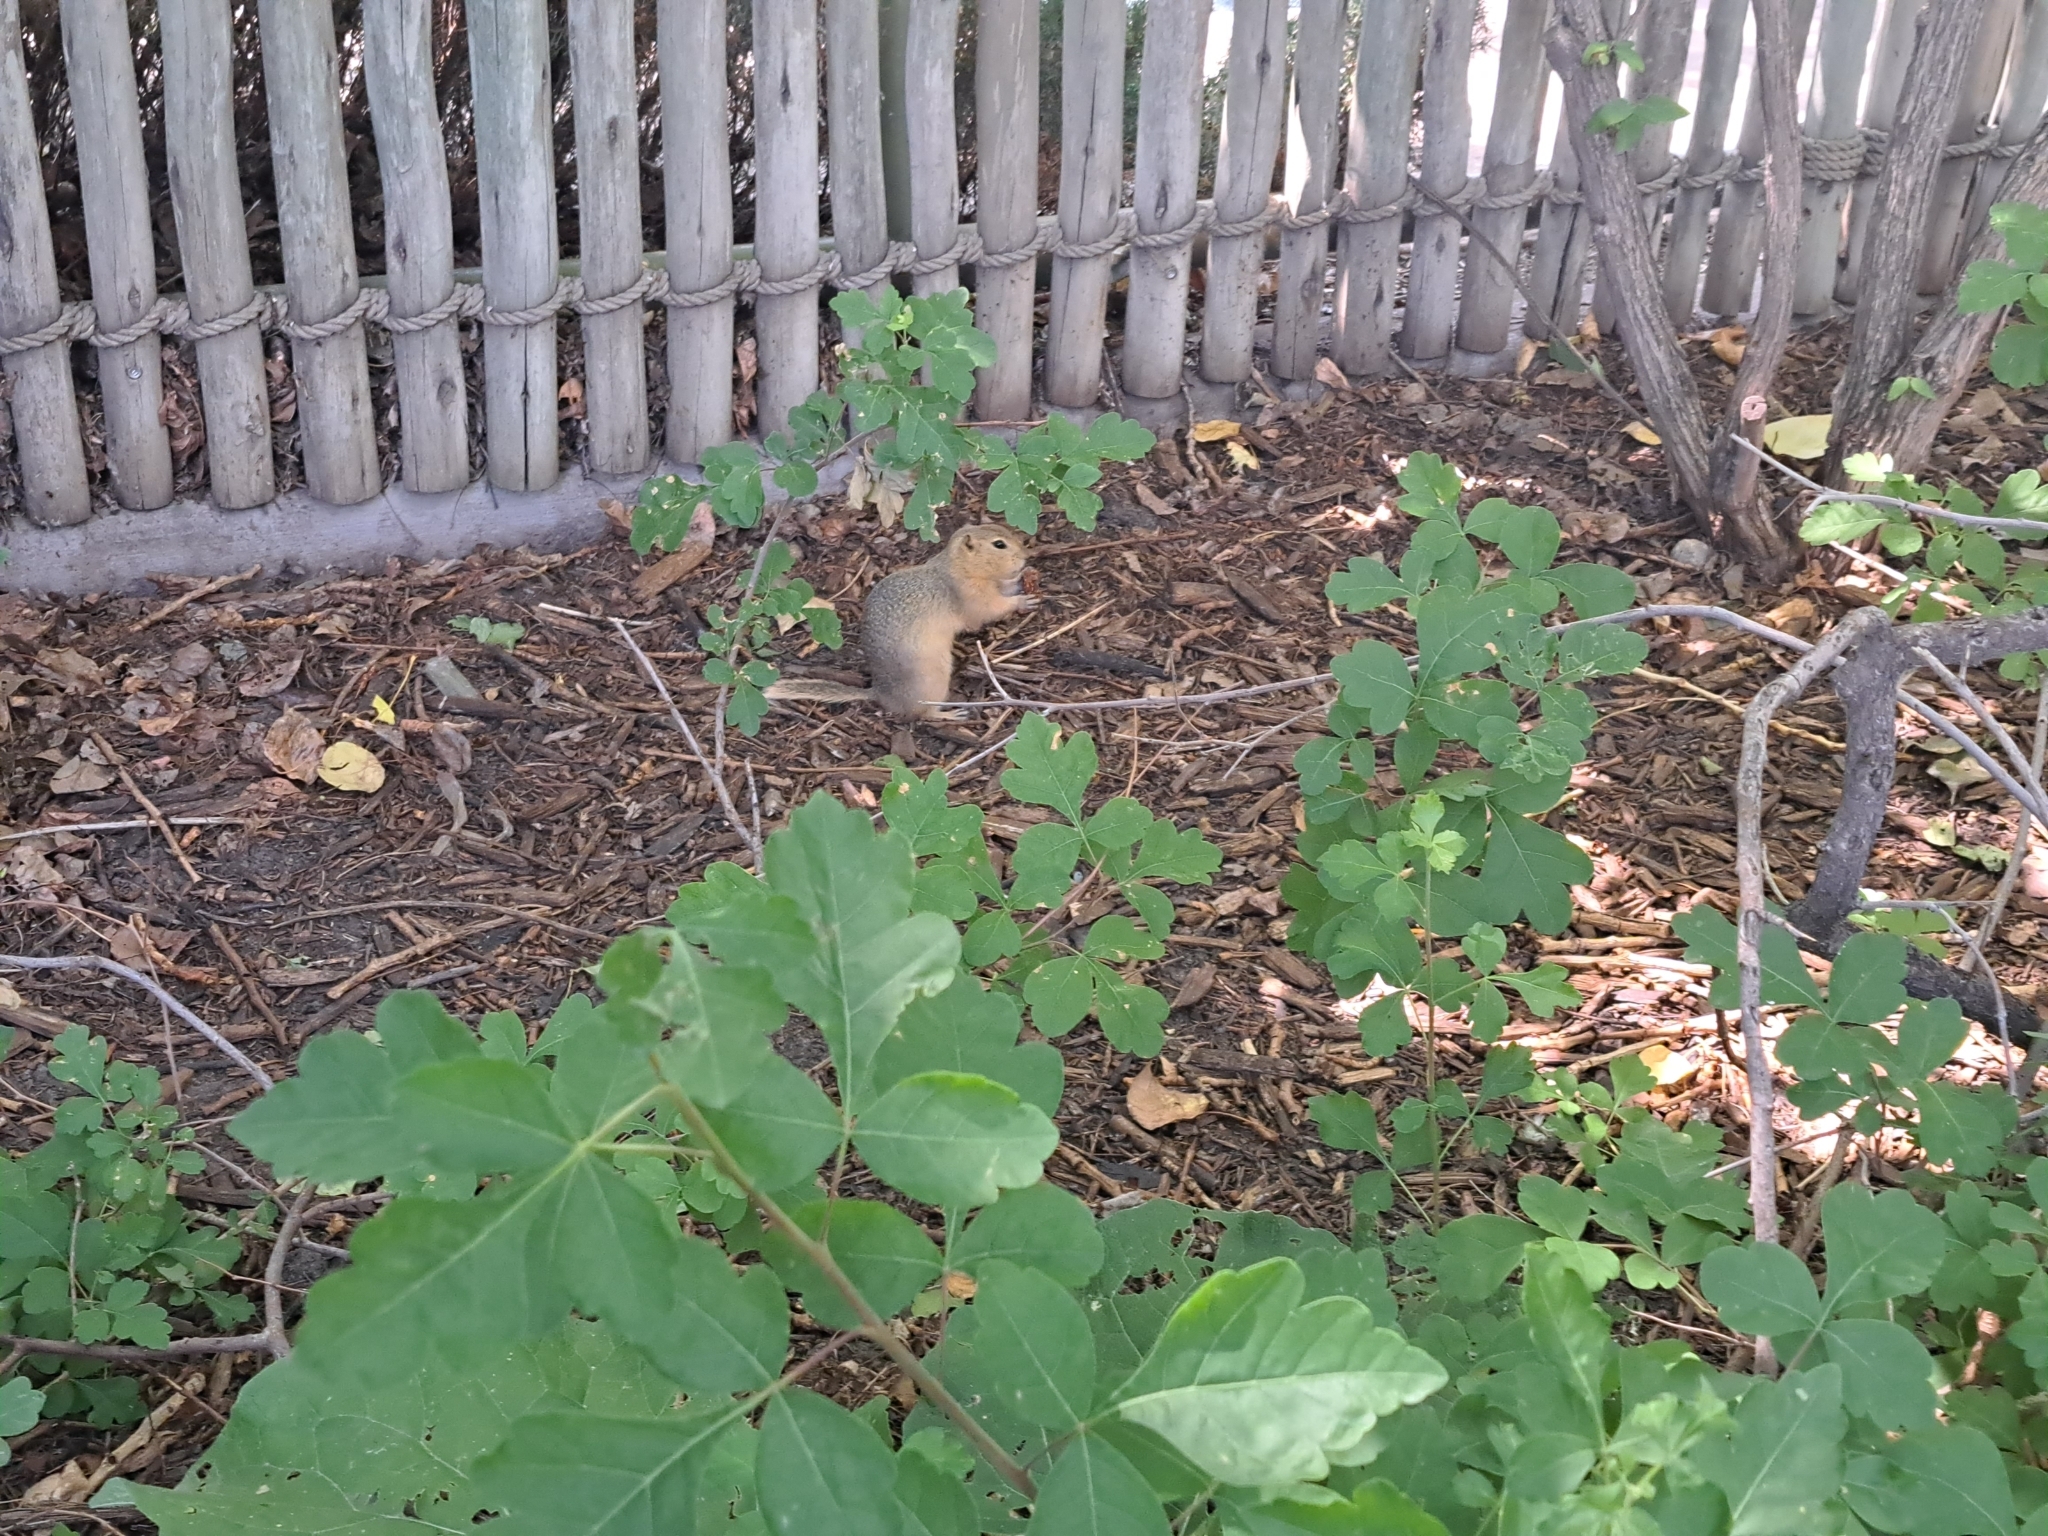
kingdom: Animalia
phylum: Chordata
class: Mammalia
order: Rodentia
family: Sciuridae
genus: Urocitellus
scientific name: Urocitellus richardsonii
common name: Richardson's ground squirrel
